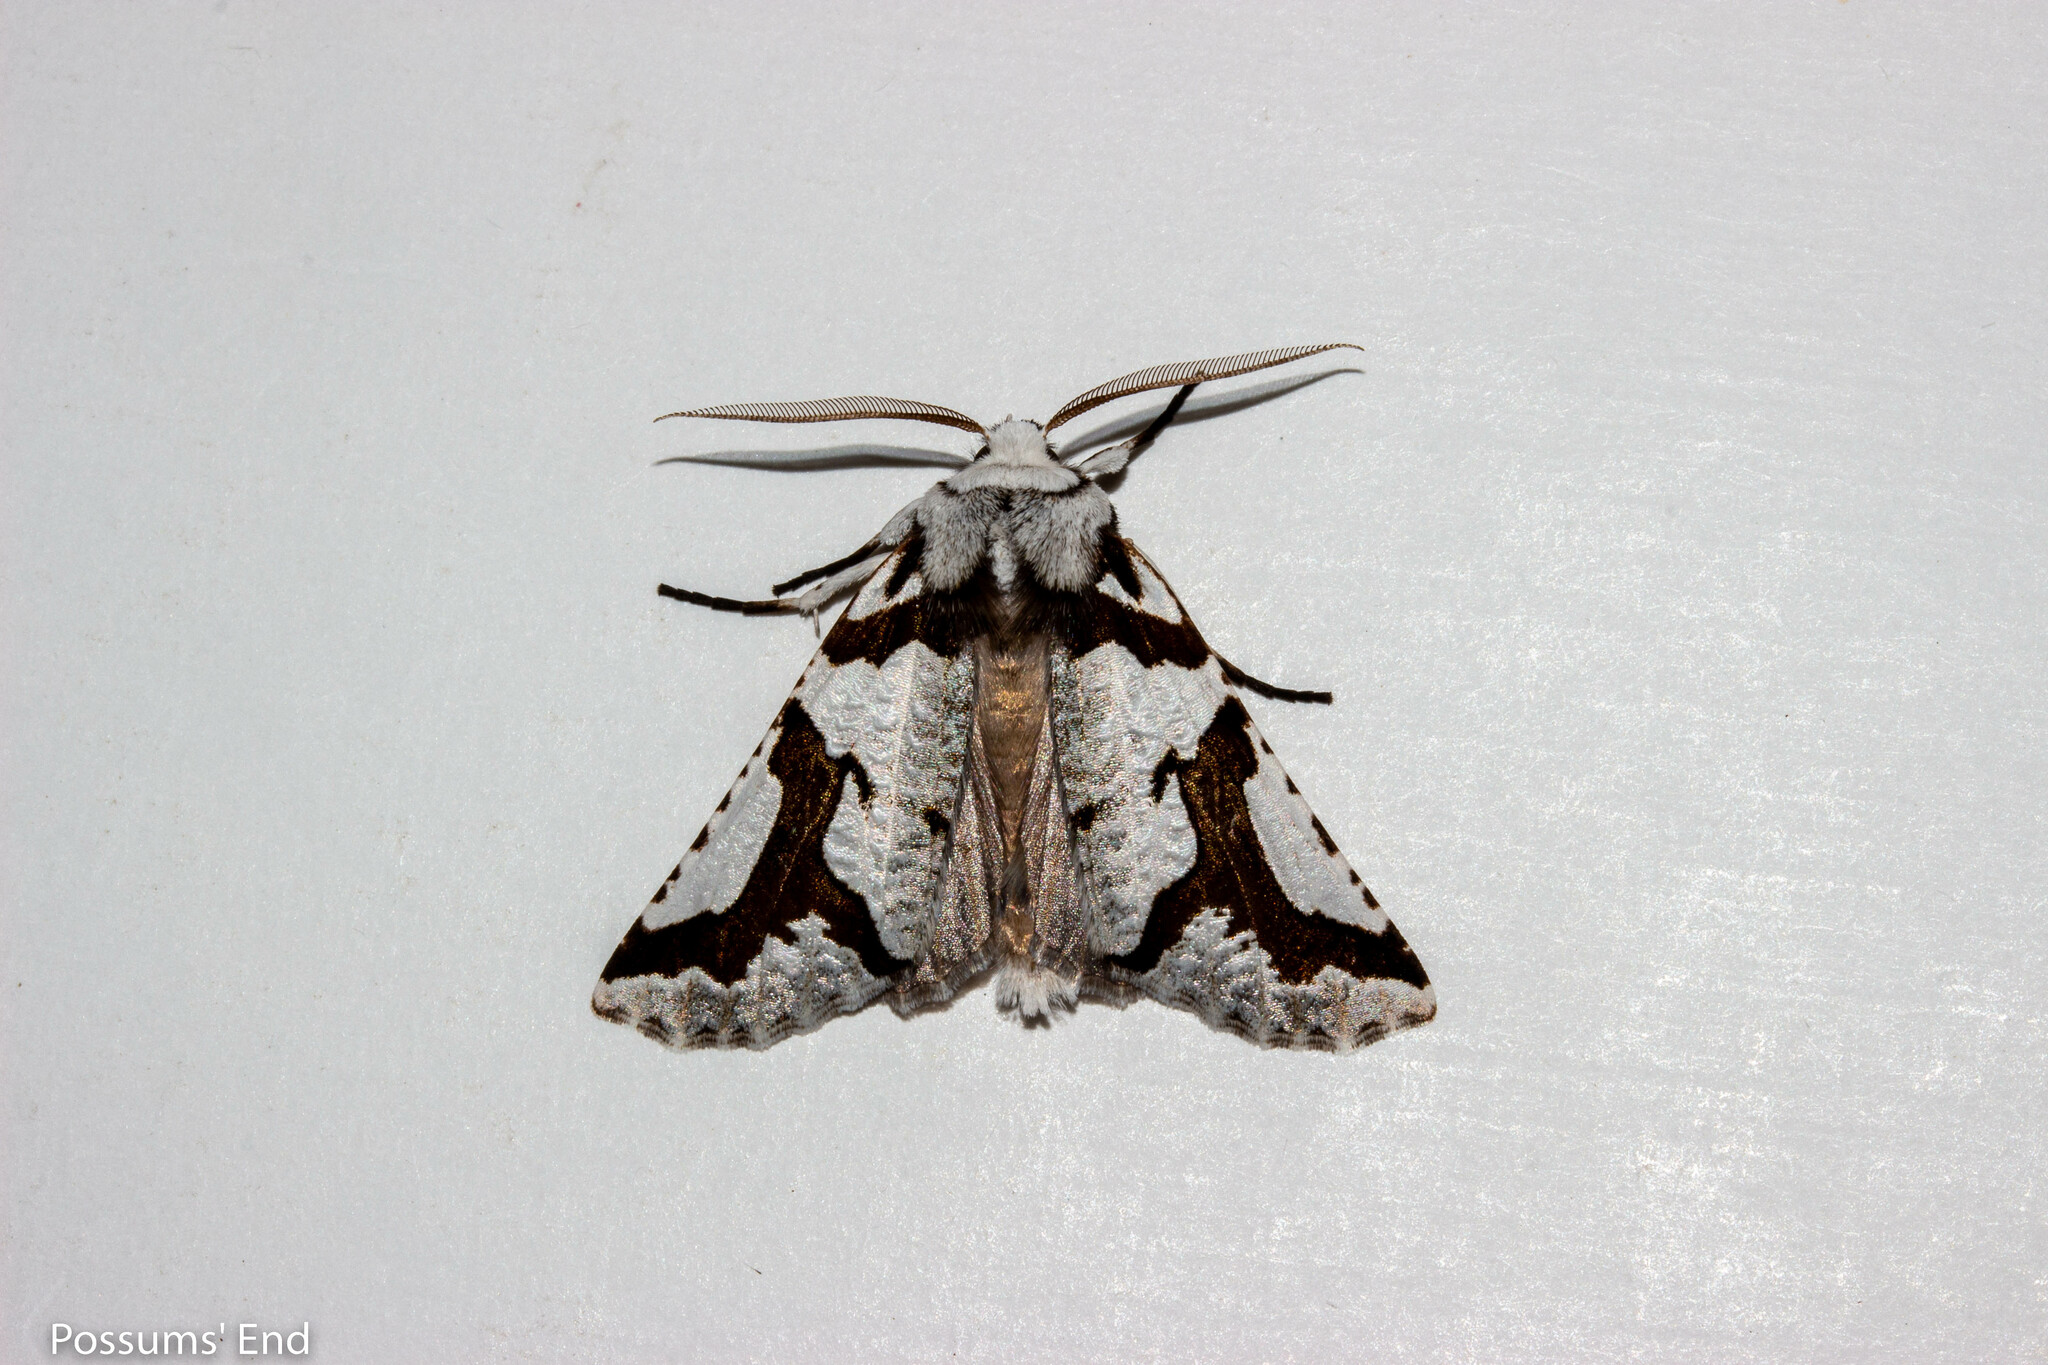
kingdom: Animalia
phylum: Arthropoda
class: Insecta
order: Lepidoptera
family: Geometridae
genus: Declana
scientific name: Declana
